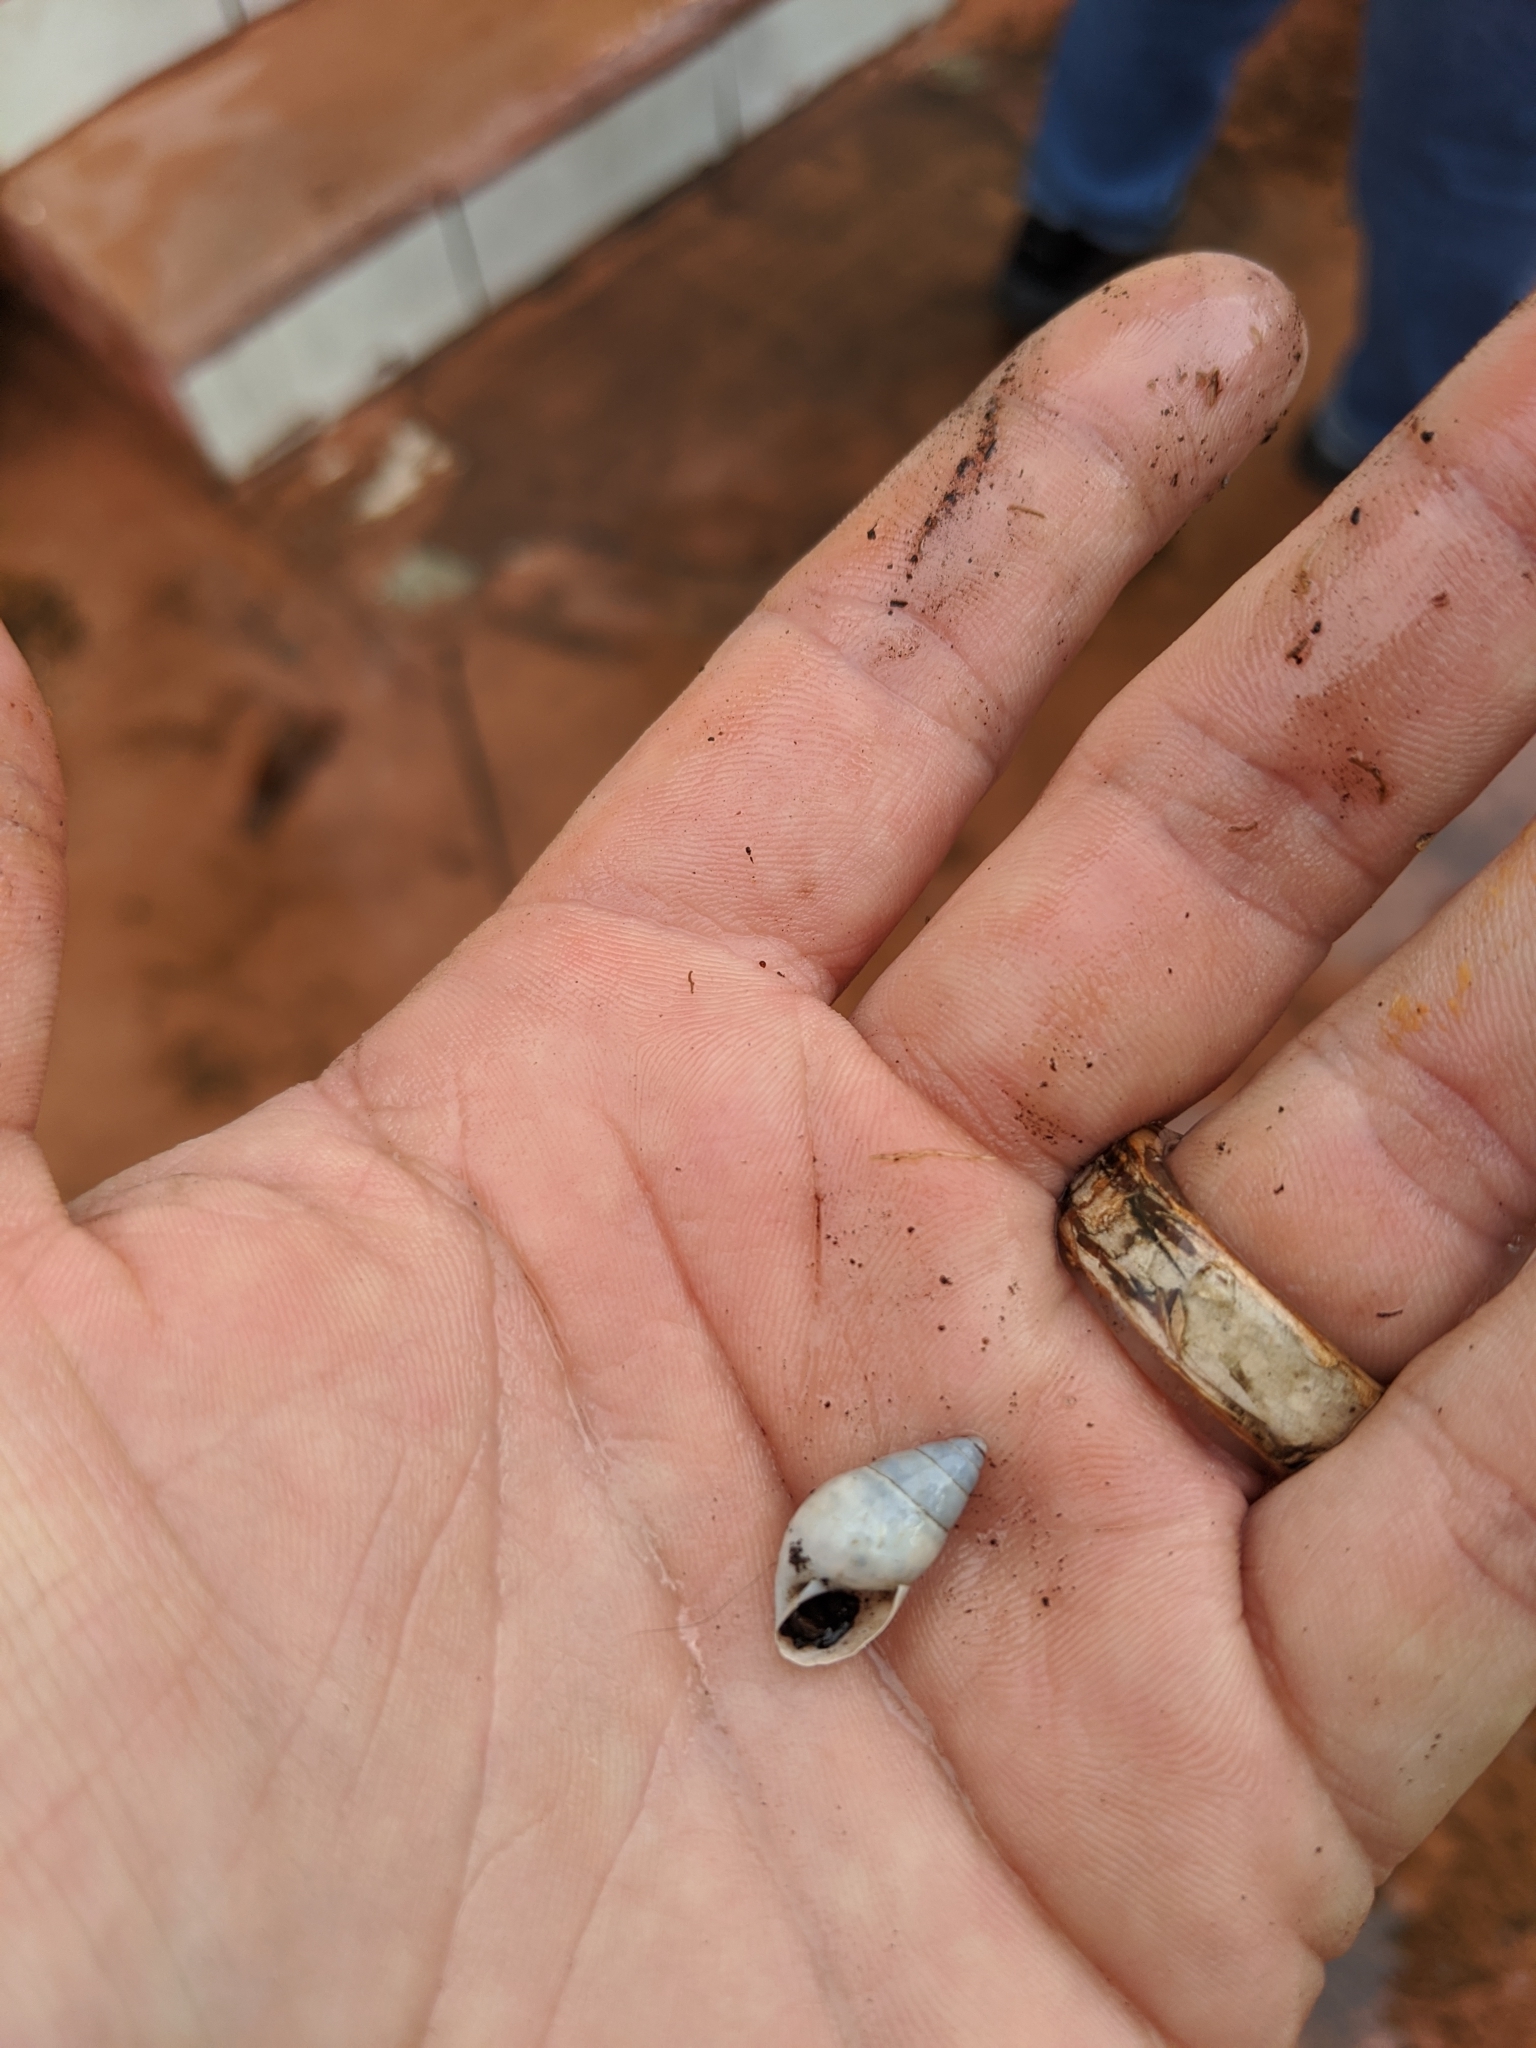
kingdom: Animalia
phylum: Mollusca
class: Gastropoda
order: Stylommatophora
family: Bulimulidae
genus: Bulimulus
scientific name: Bulimulus guadalupensis
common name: West indian bulimulus
